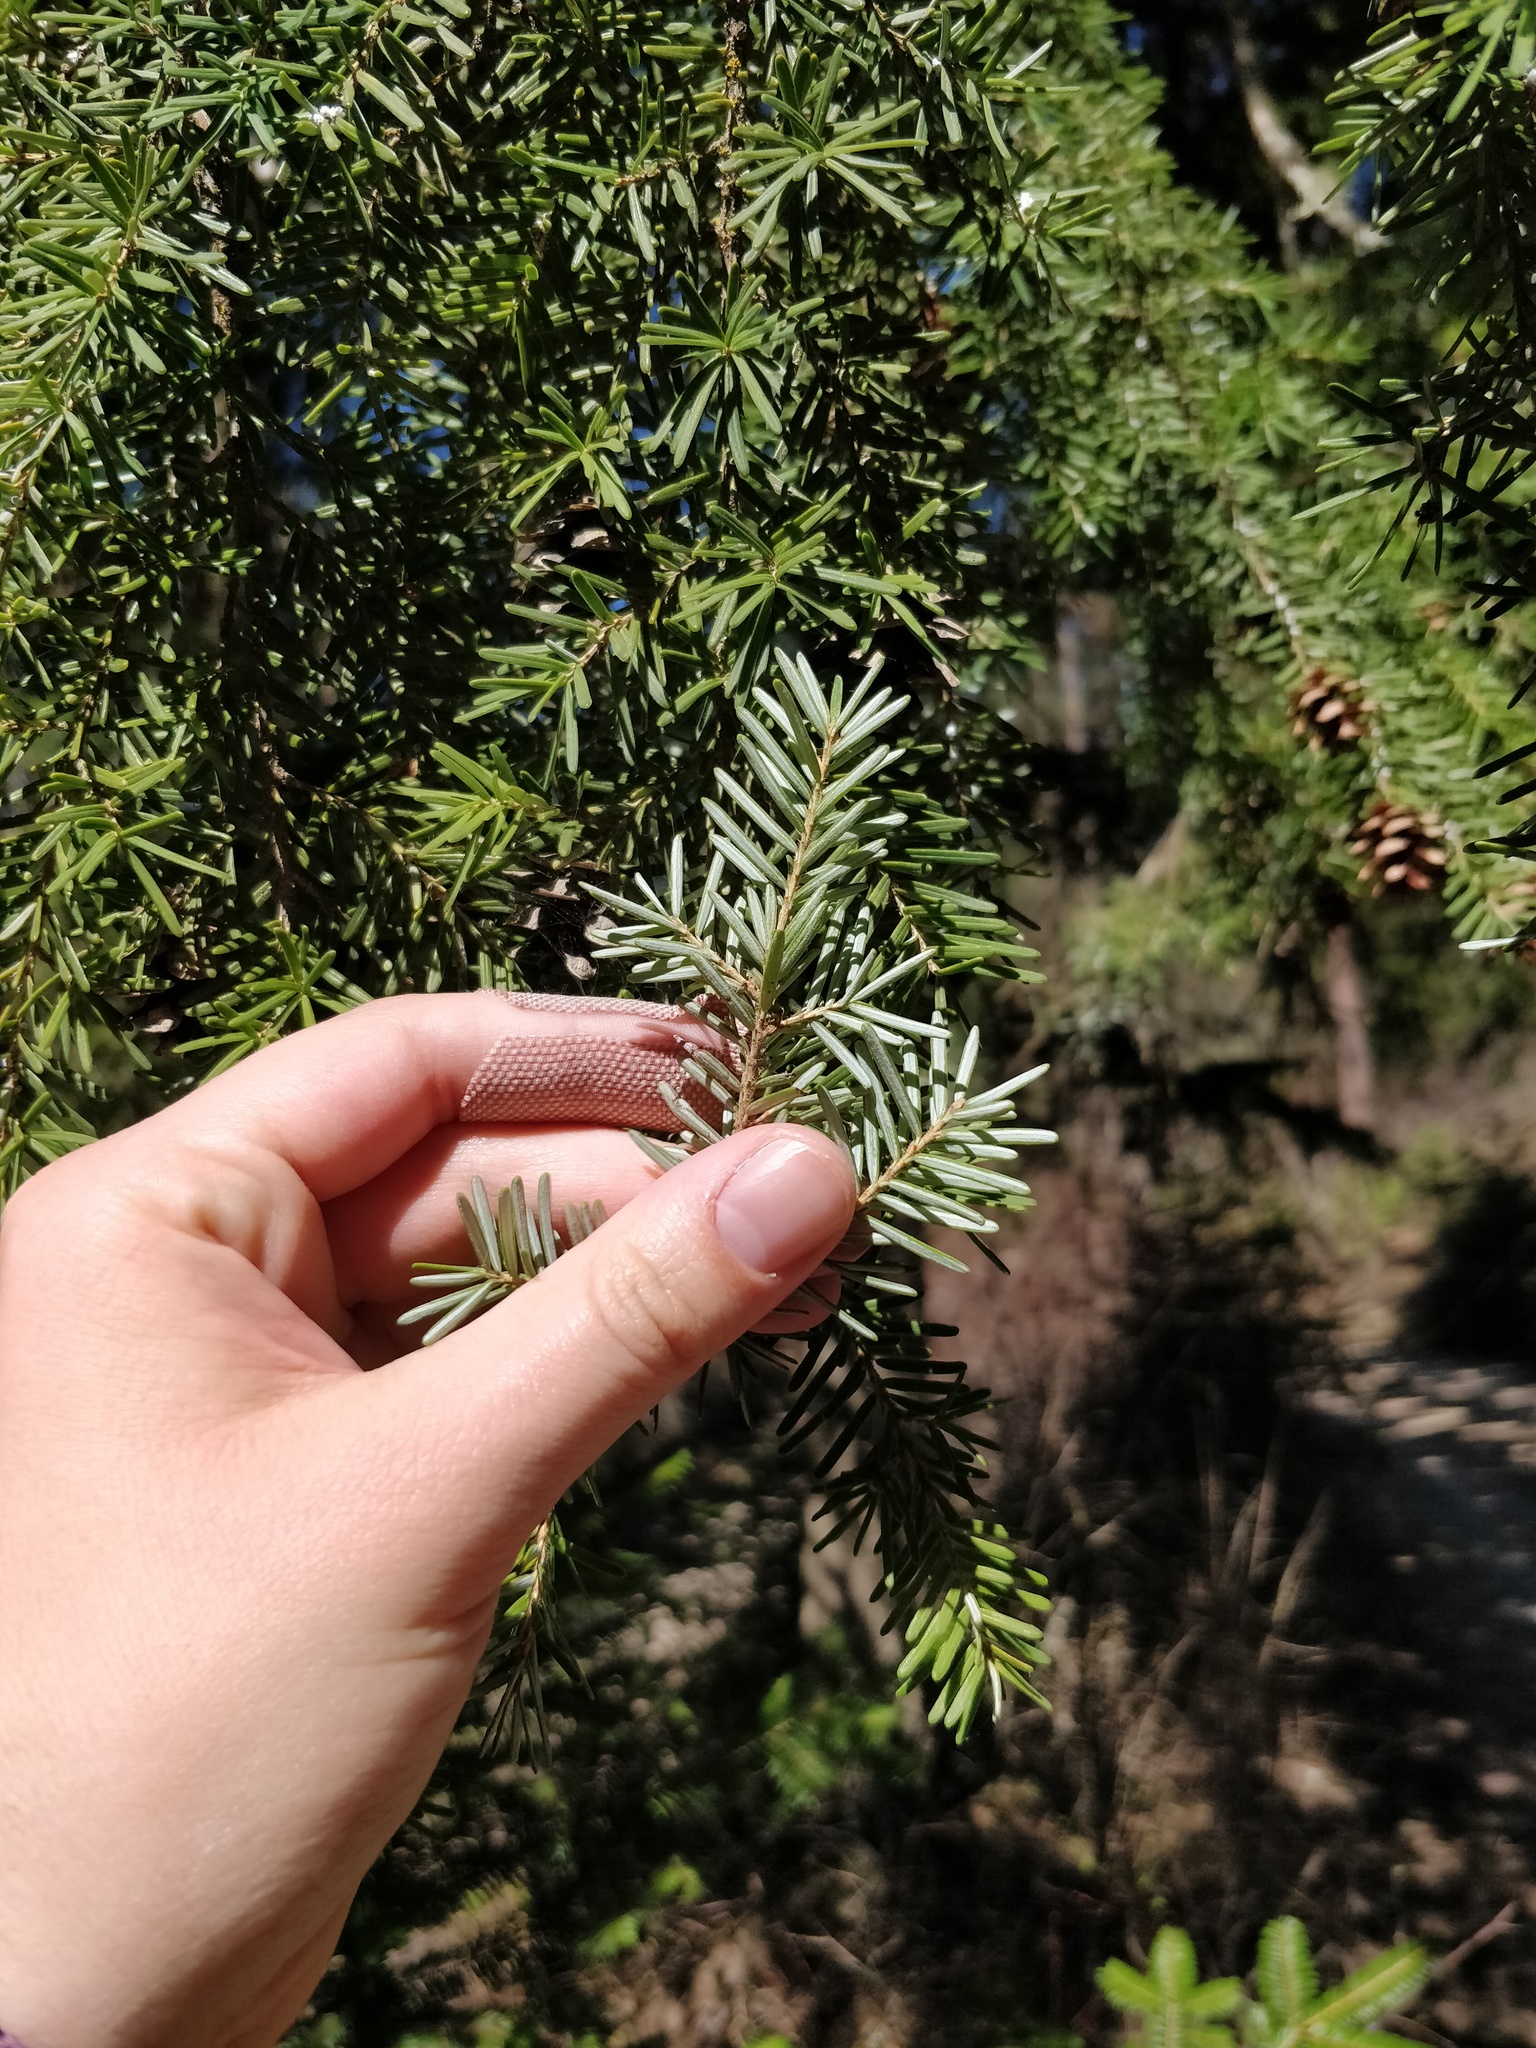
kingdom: Plantae
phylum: Tracheophyta
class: Pinopsida
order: Pinales
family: Pinaceae
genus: Tsuga
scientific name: Tsuga heterophylla
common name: Western hemlock
